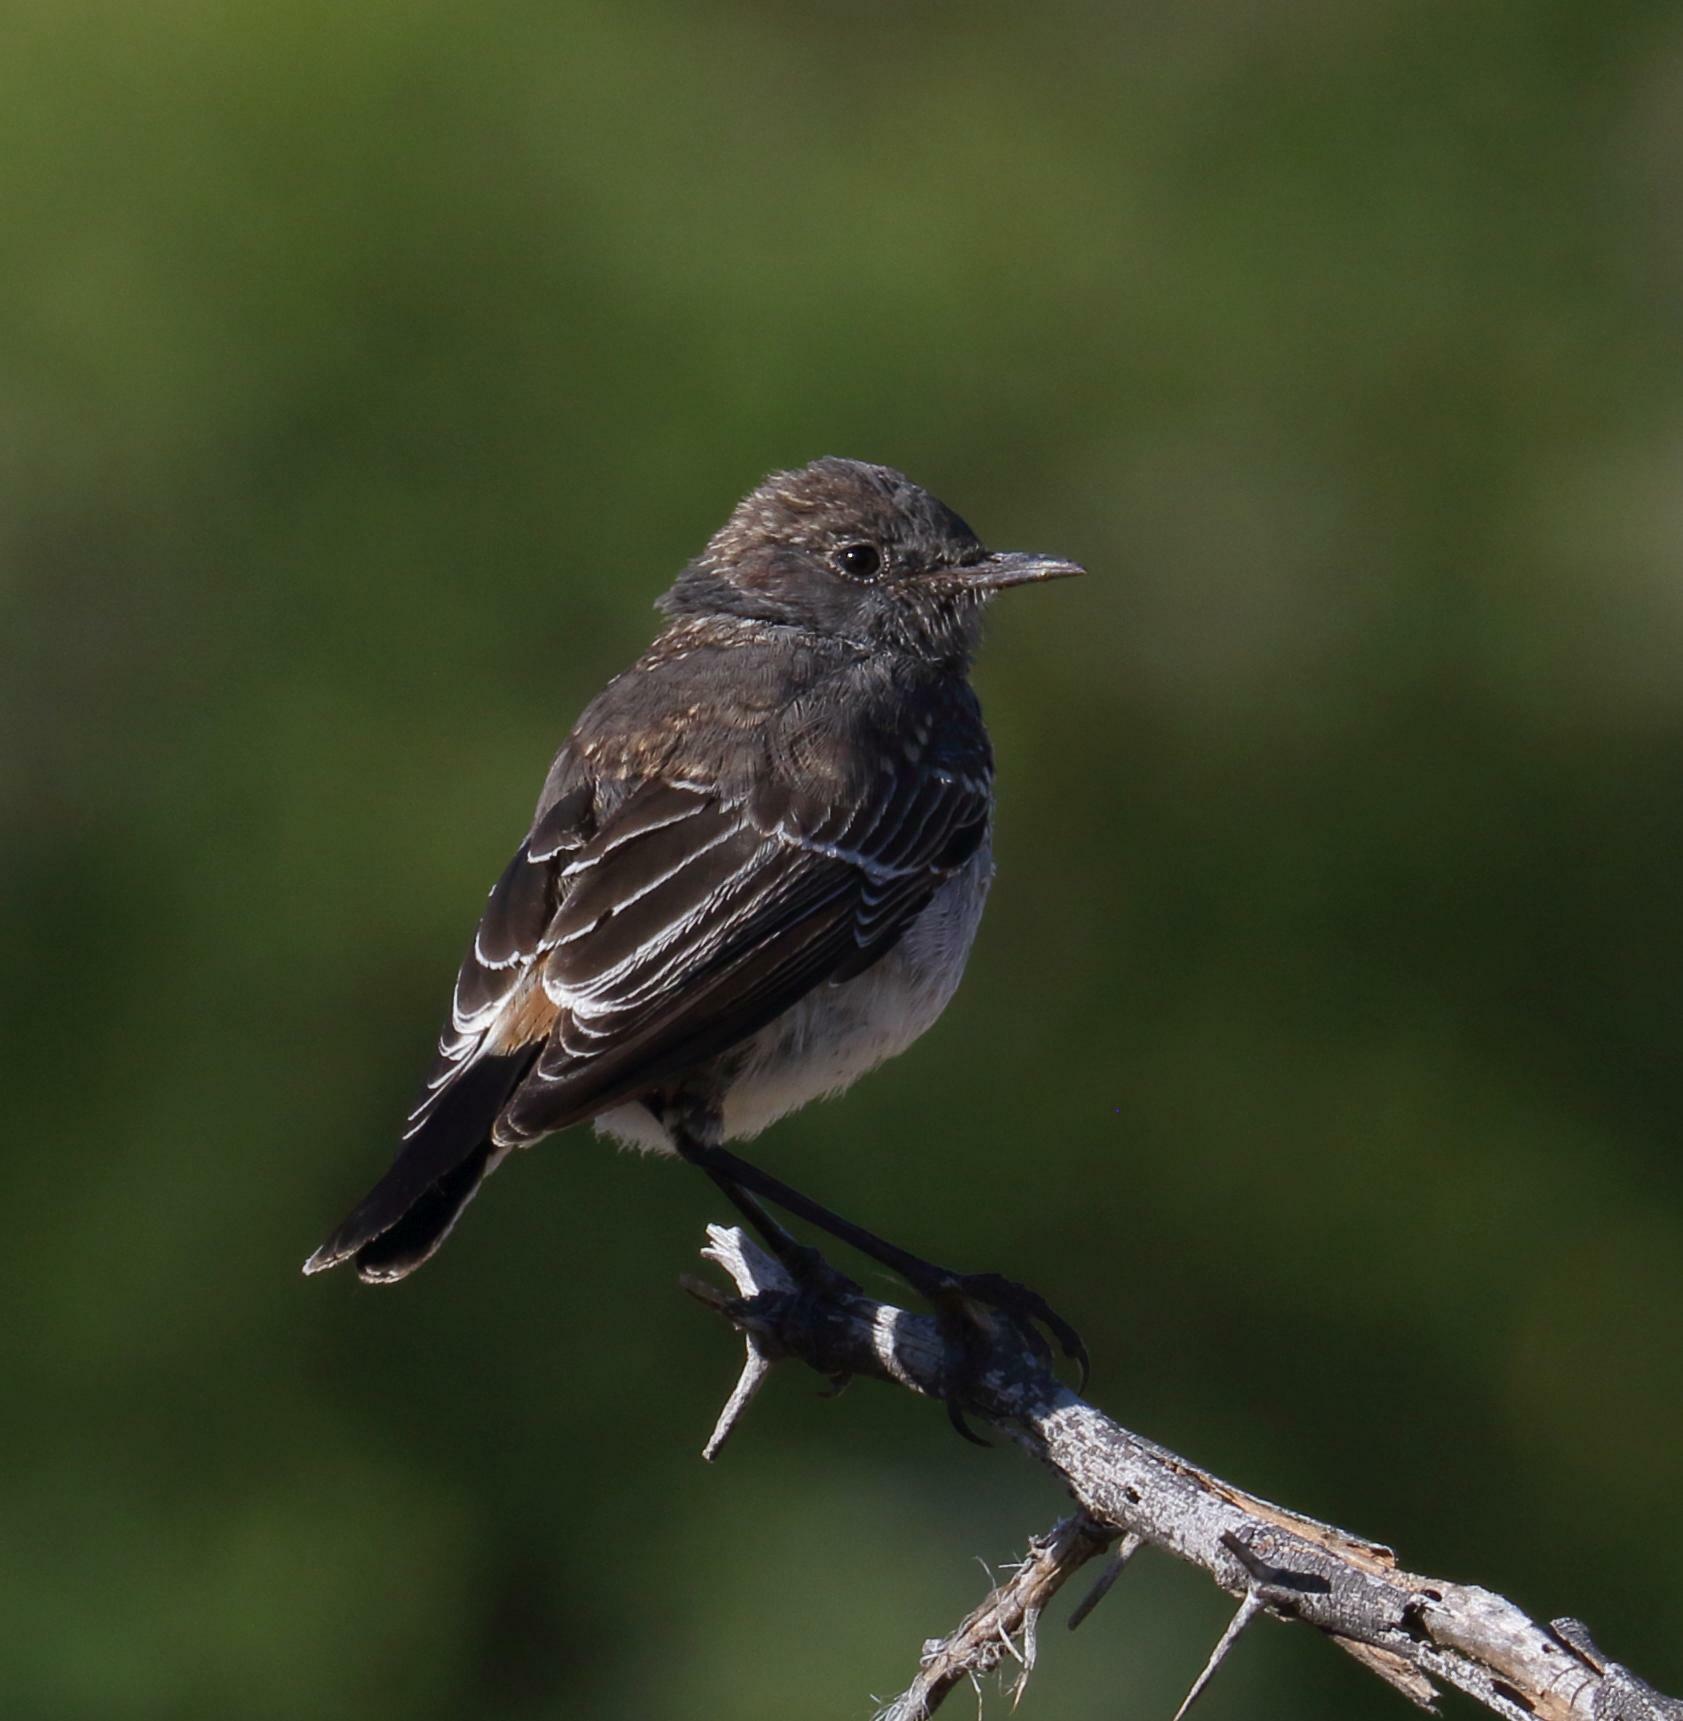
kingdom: Animalia
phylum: Chordata
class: Aves
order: Passeriformes
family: Muscicapidae
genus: Emarginata
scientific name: Emarginata schlegelii
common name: Karoo chat
